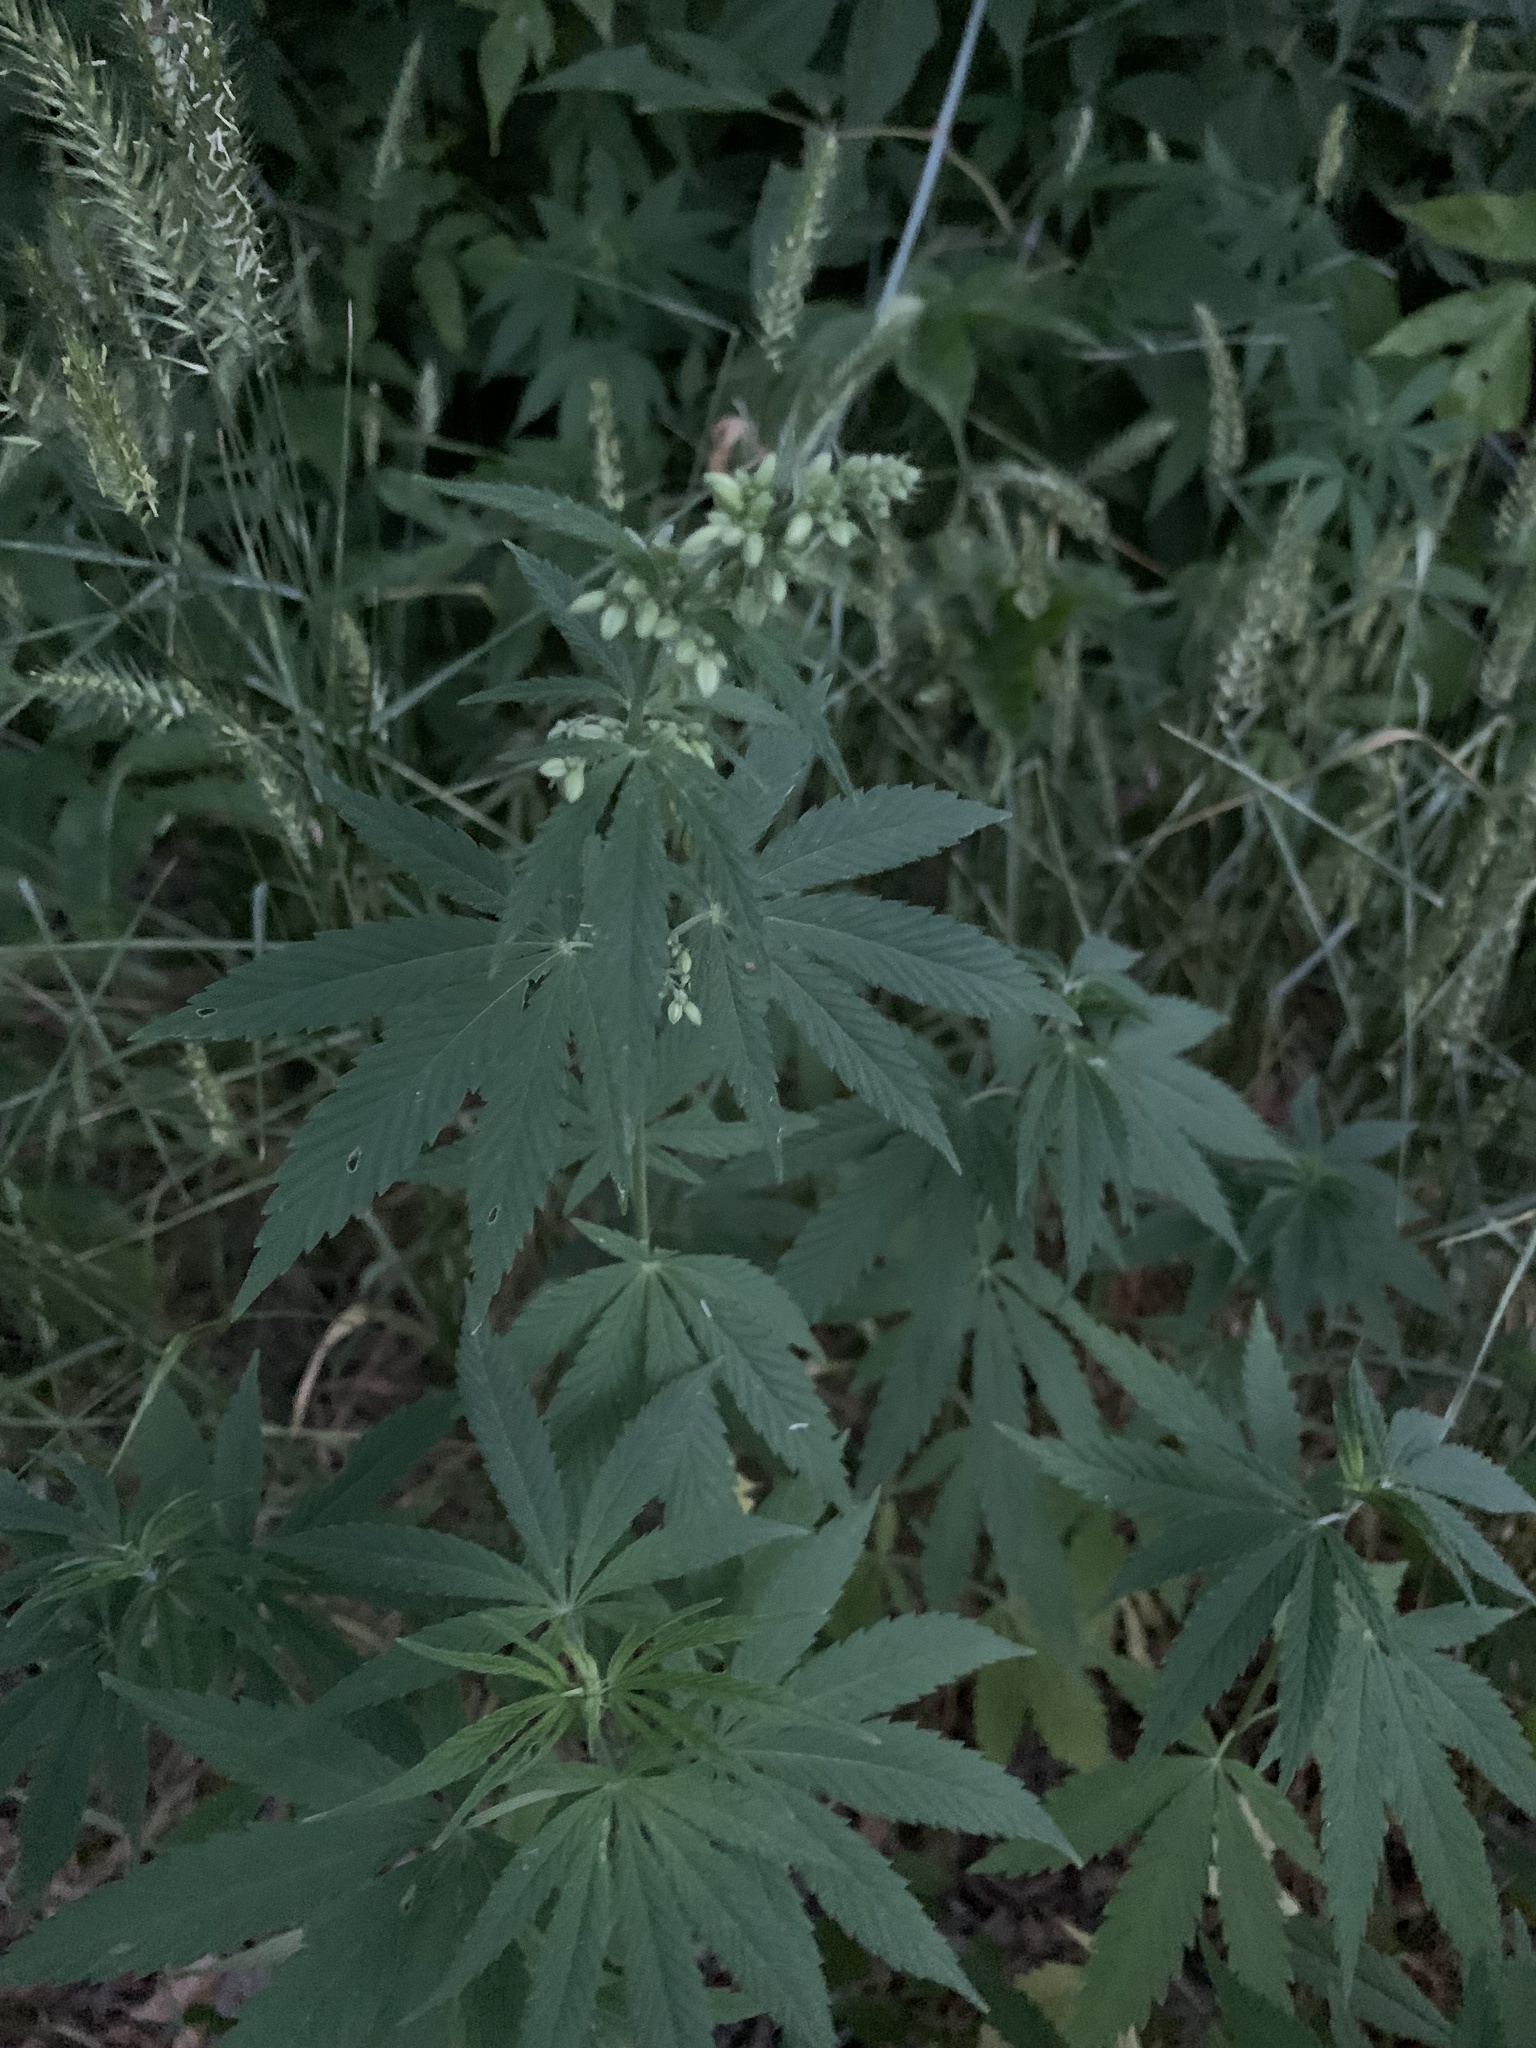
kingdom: Plantae
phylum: Tracheophyta
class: Magnoliopsida
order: Rosales
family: Cannabaceae
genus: Cannabis
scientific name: Cannabis sativa
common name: Hemp
